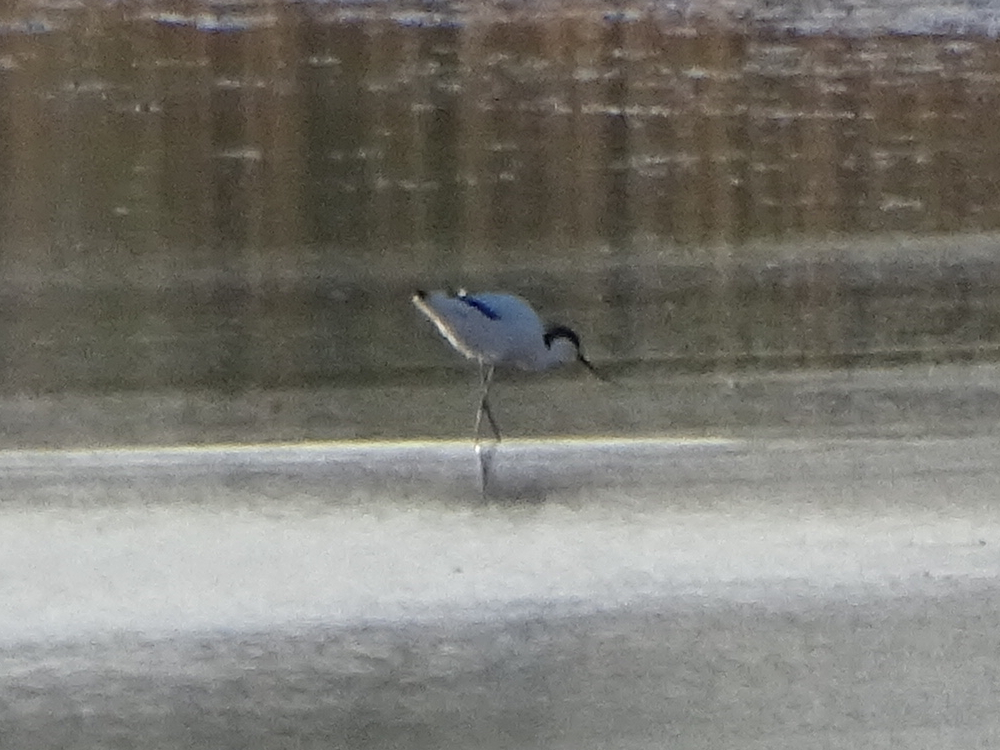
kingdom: Animalia
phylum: Chordata
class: Aves
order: Charadriiformes
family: Recurvirostridae
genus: Recurvirostra
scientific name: Recurvirostra avosetta
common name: Pied avocet
